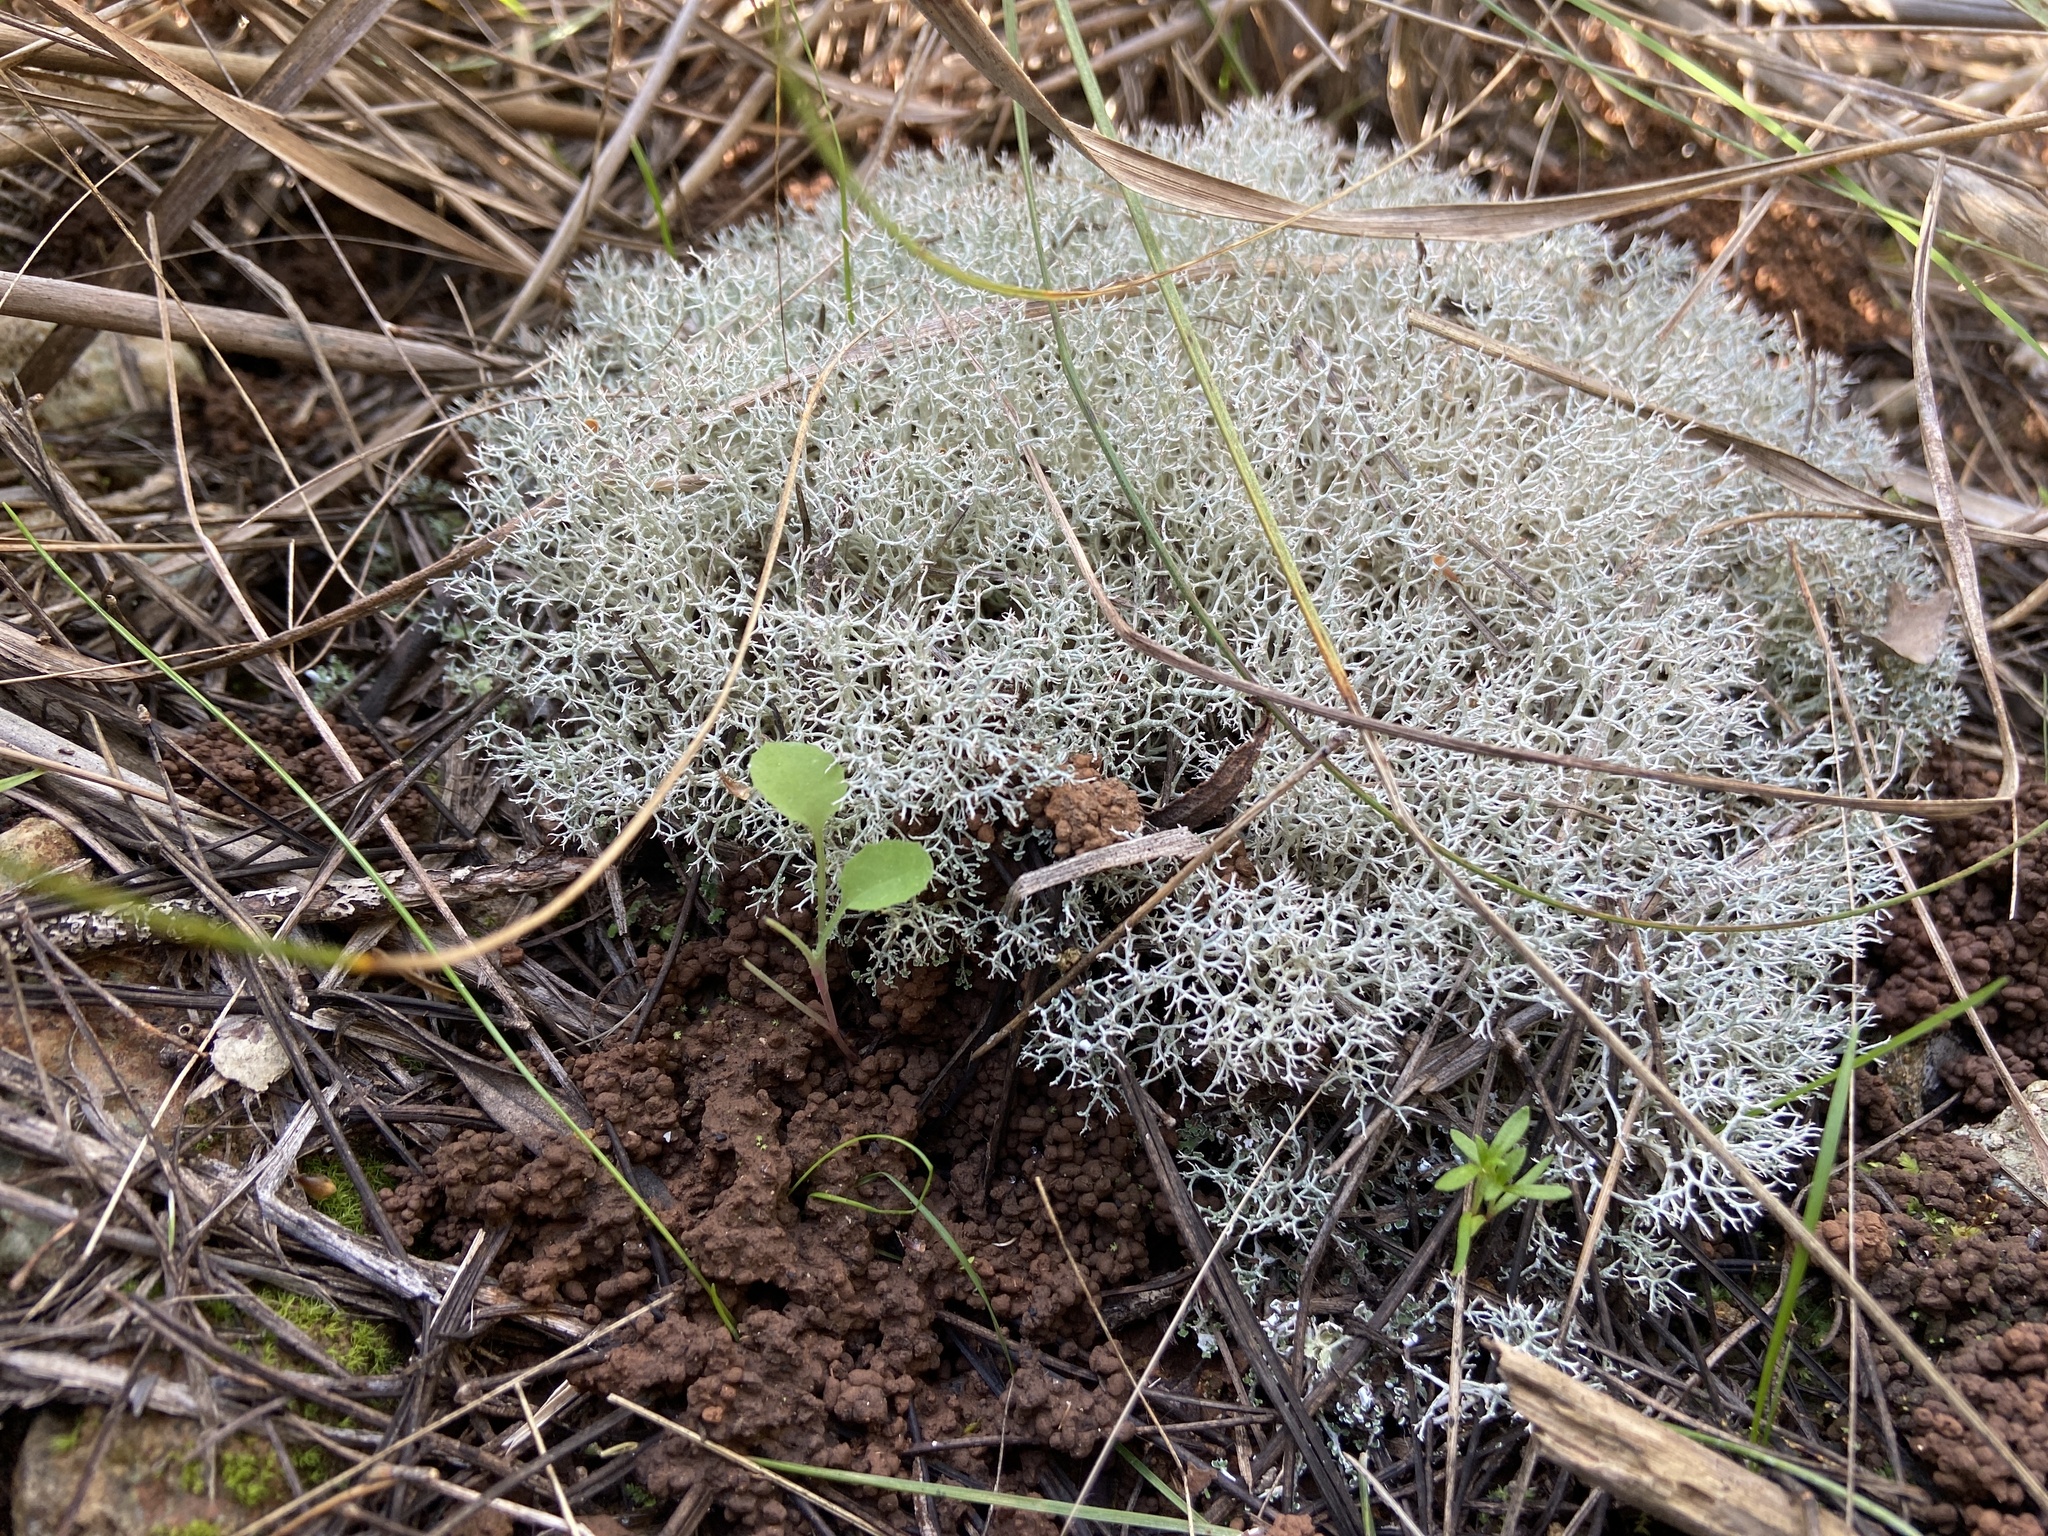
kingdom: Fungi
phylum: Ascomycota
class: Lecanoromycetes
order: Lecanorales
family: Cladoniaceae
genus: Cladonia
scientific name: Cladonia rangiformis
